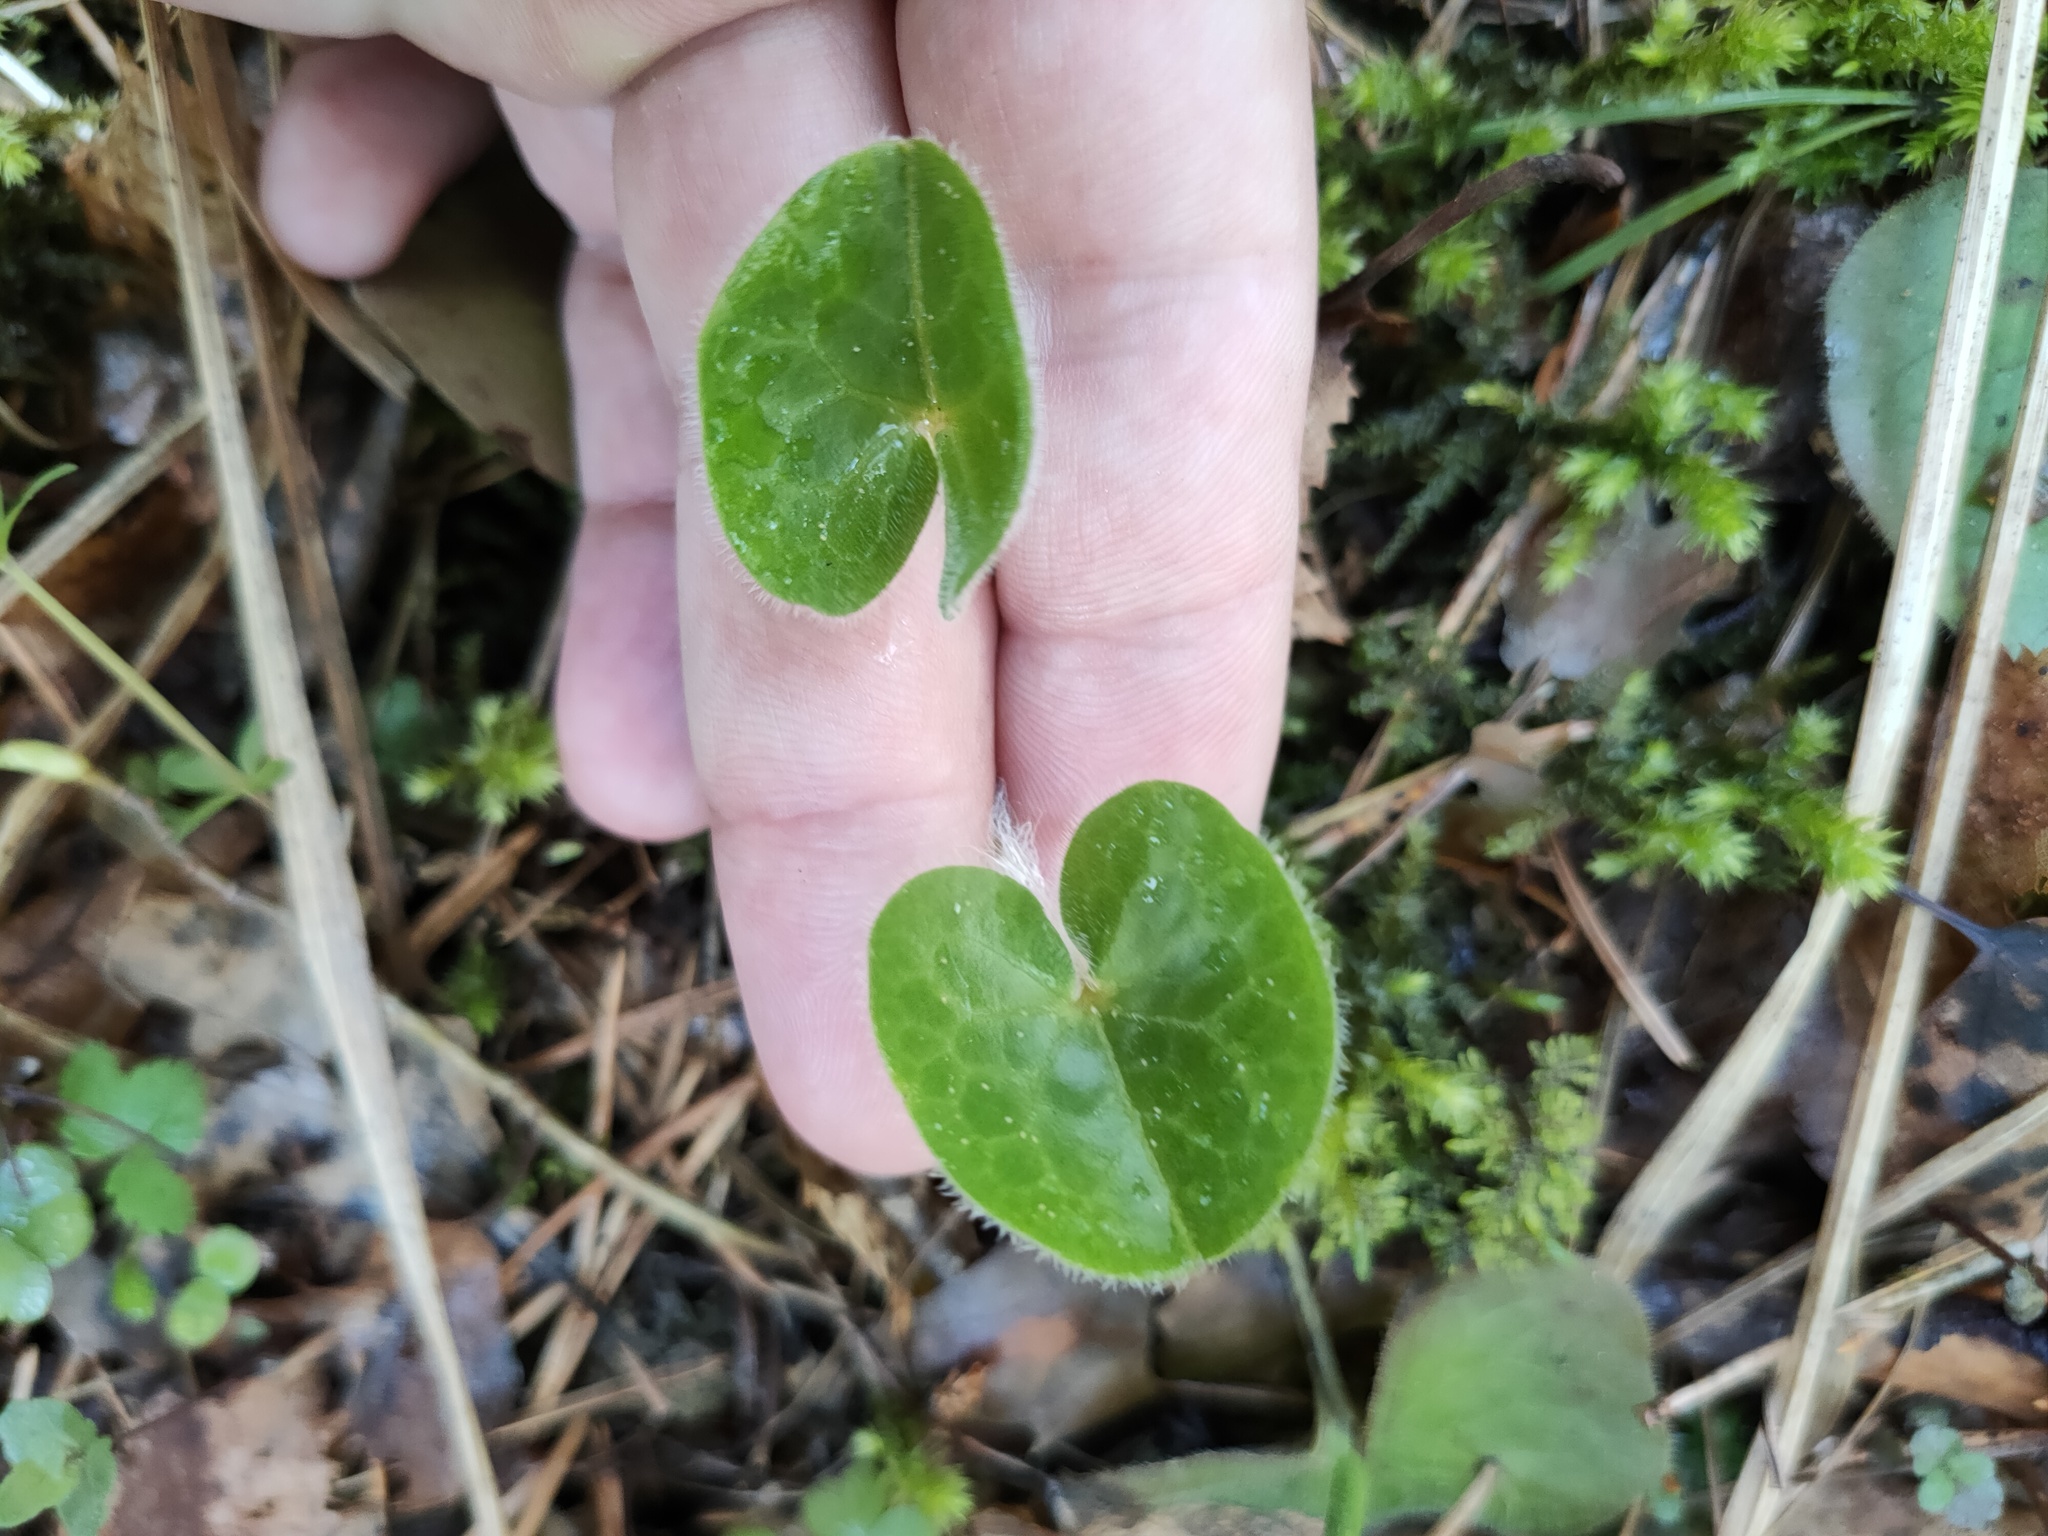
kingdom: Plantae
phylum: Tracheophyta
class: Magnoliopsida
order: Piperales
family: Aristolochiaceae
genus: Asarum
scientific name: Asarum europaeum
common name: Asarabacca
